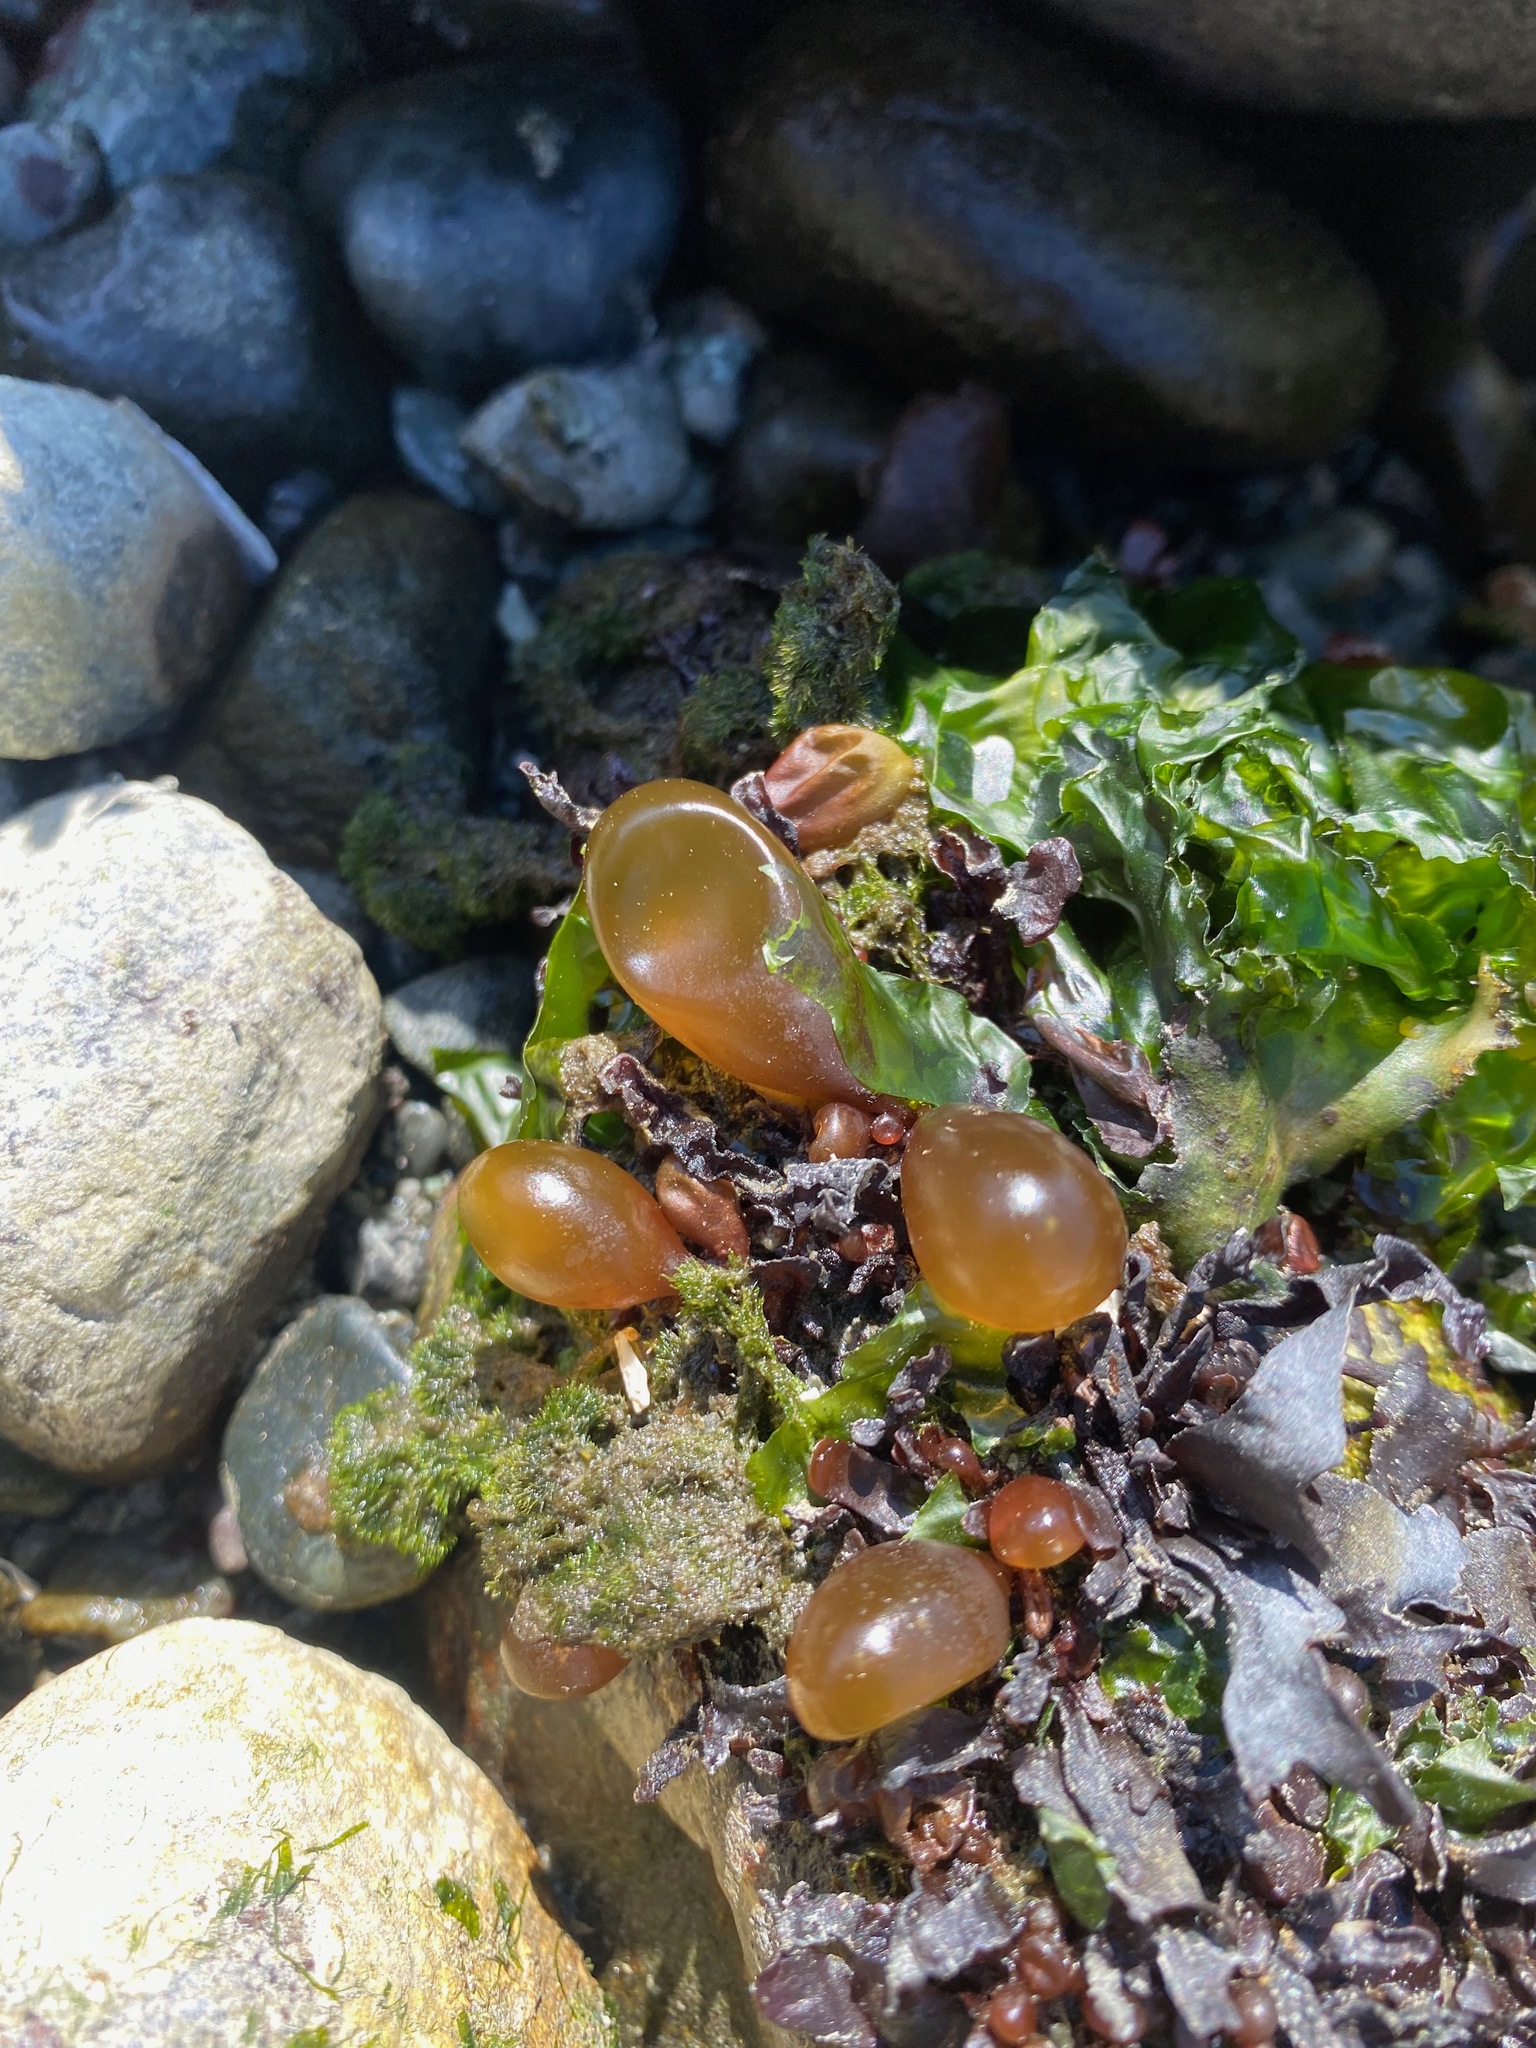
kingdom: Plantae
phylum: Rhodophyta
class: Florideophyceae
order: Palmariales
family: Palmariaceae
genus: Halosaccion
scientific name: Halosaccion glandiforme
